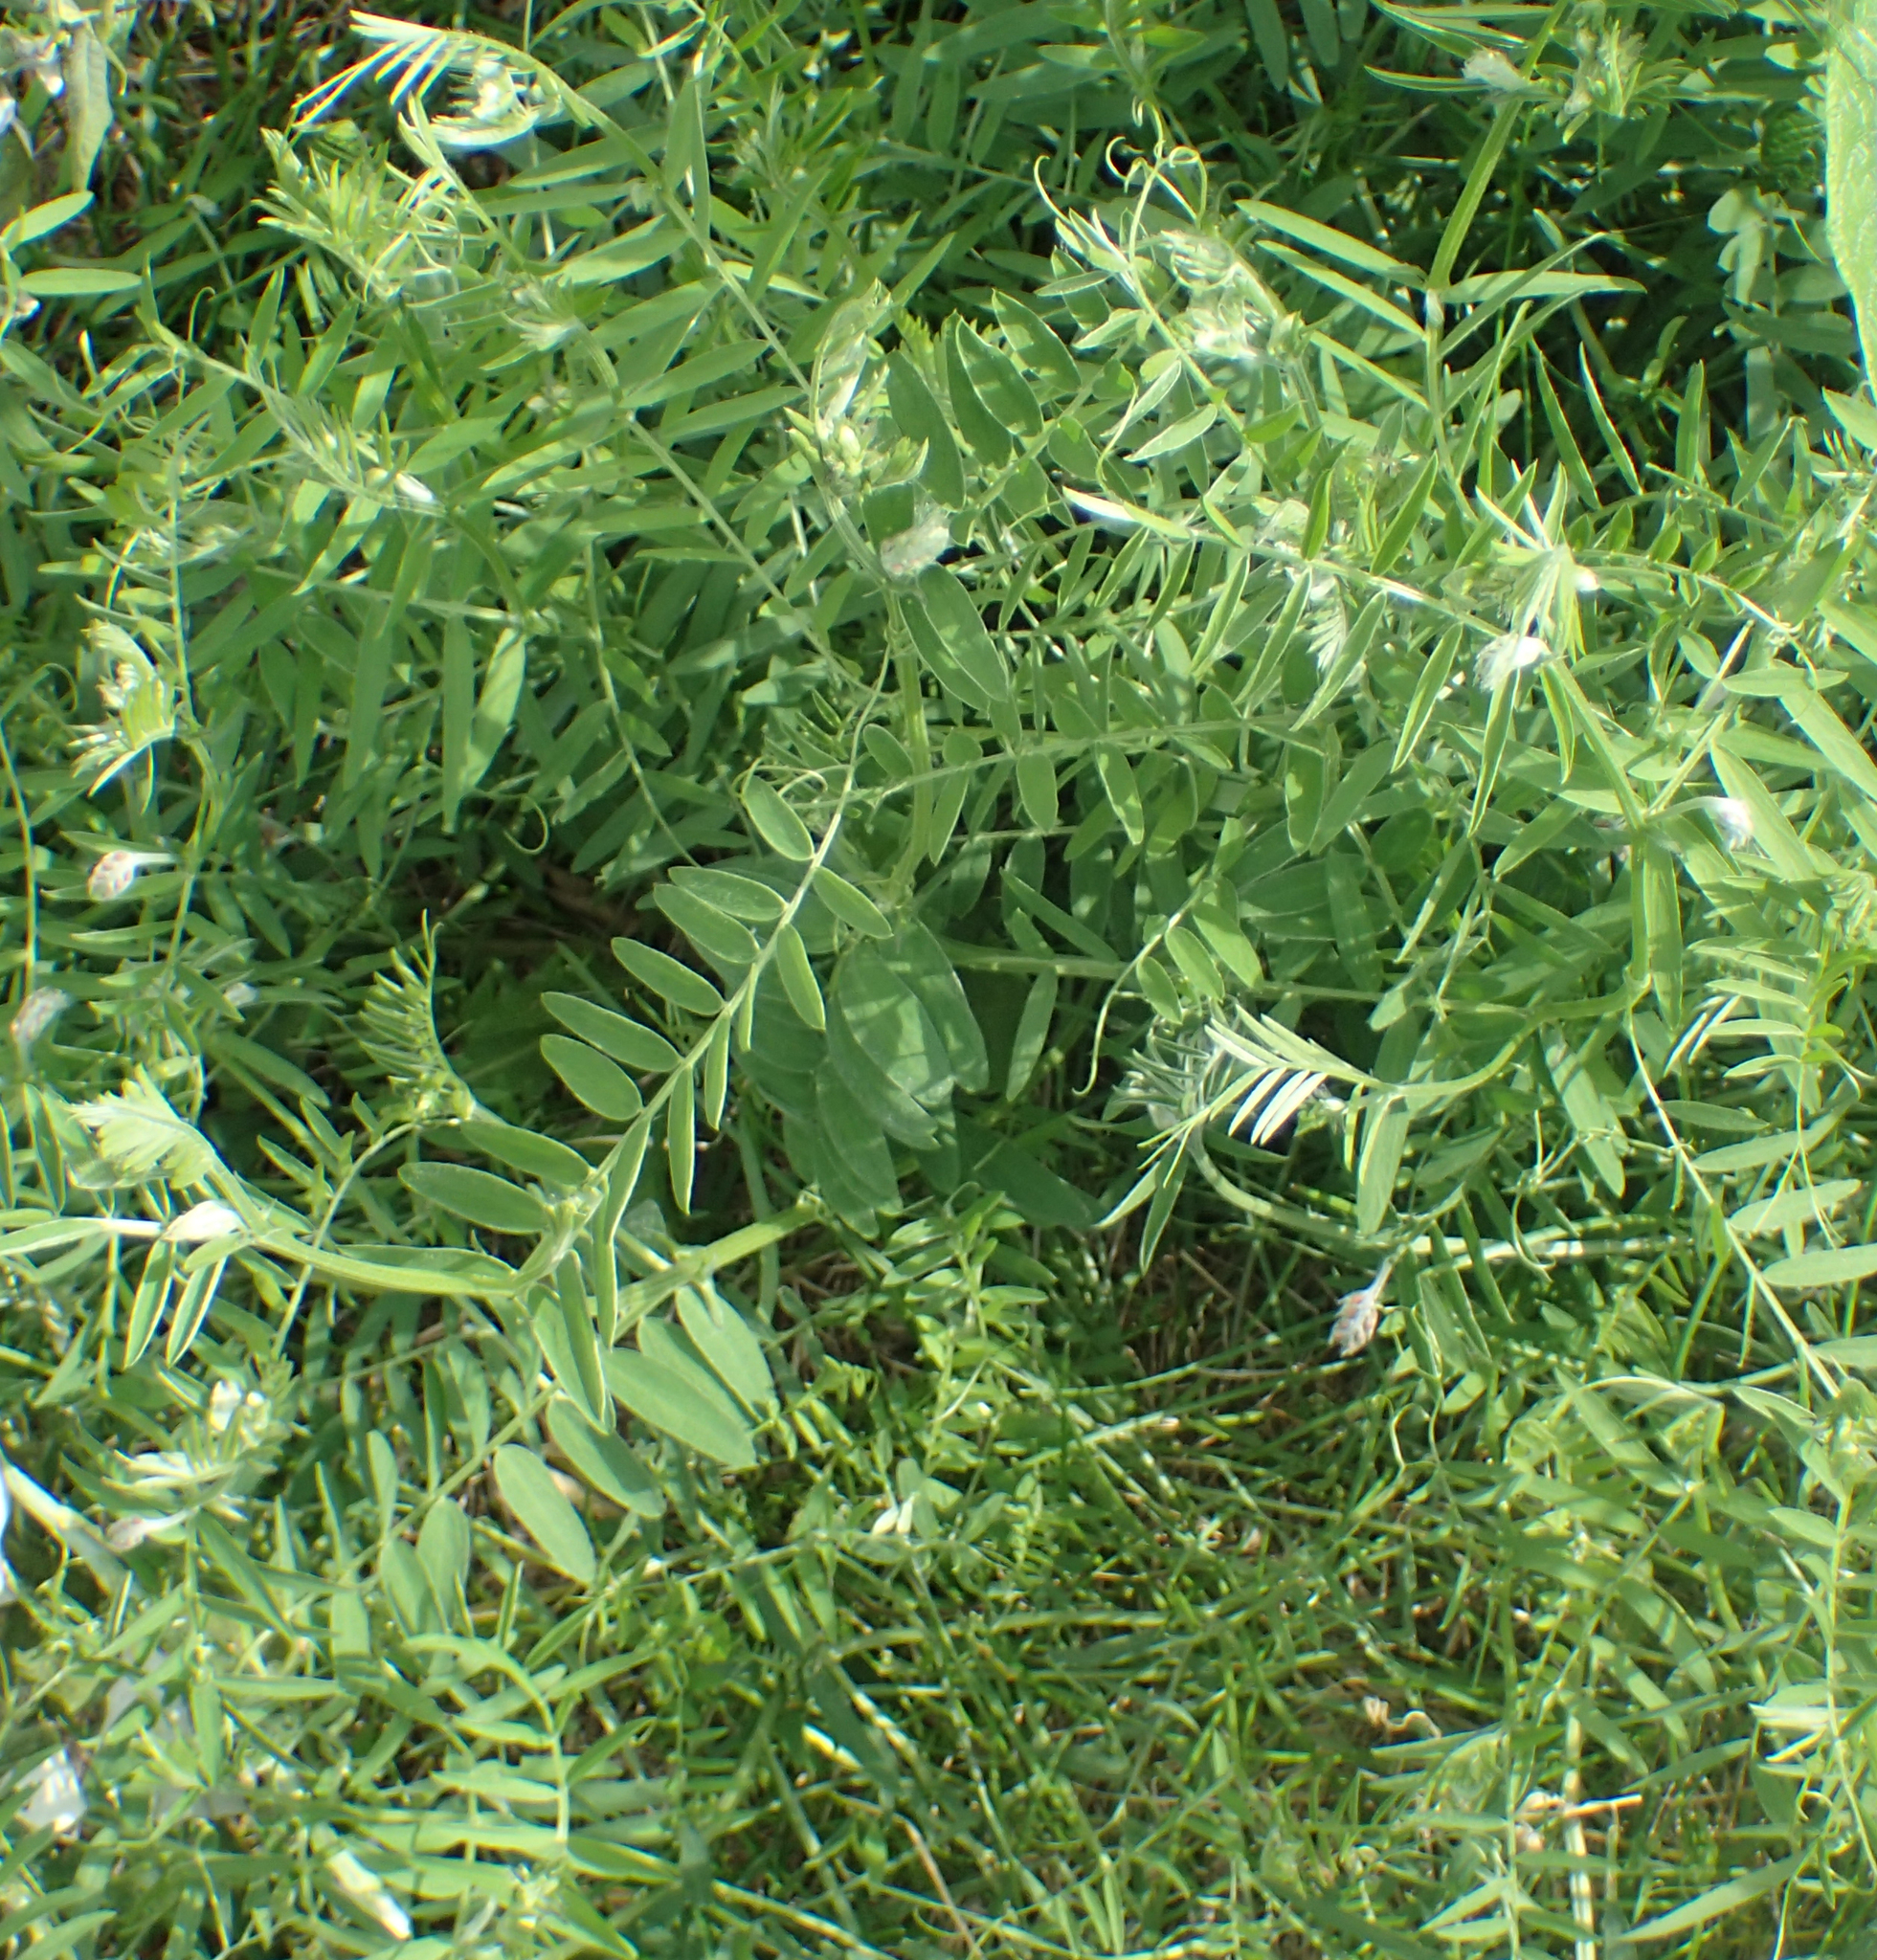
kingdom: Plantae
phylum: Tracheophyta
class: Magnoliopsida
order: Fabales
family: Fabaceae
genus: Vicia
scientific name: Vicia cracca
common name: Bird vetch
